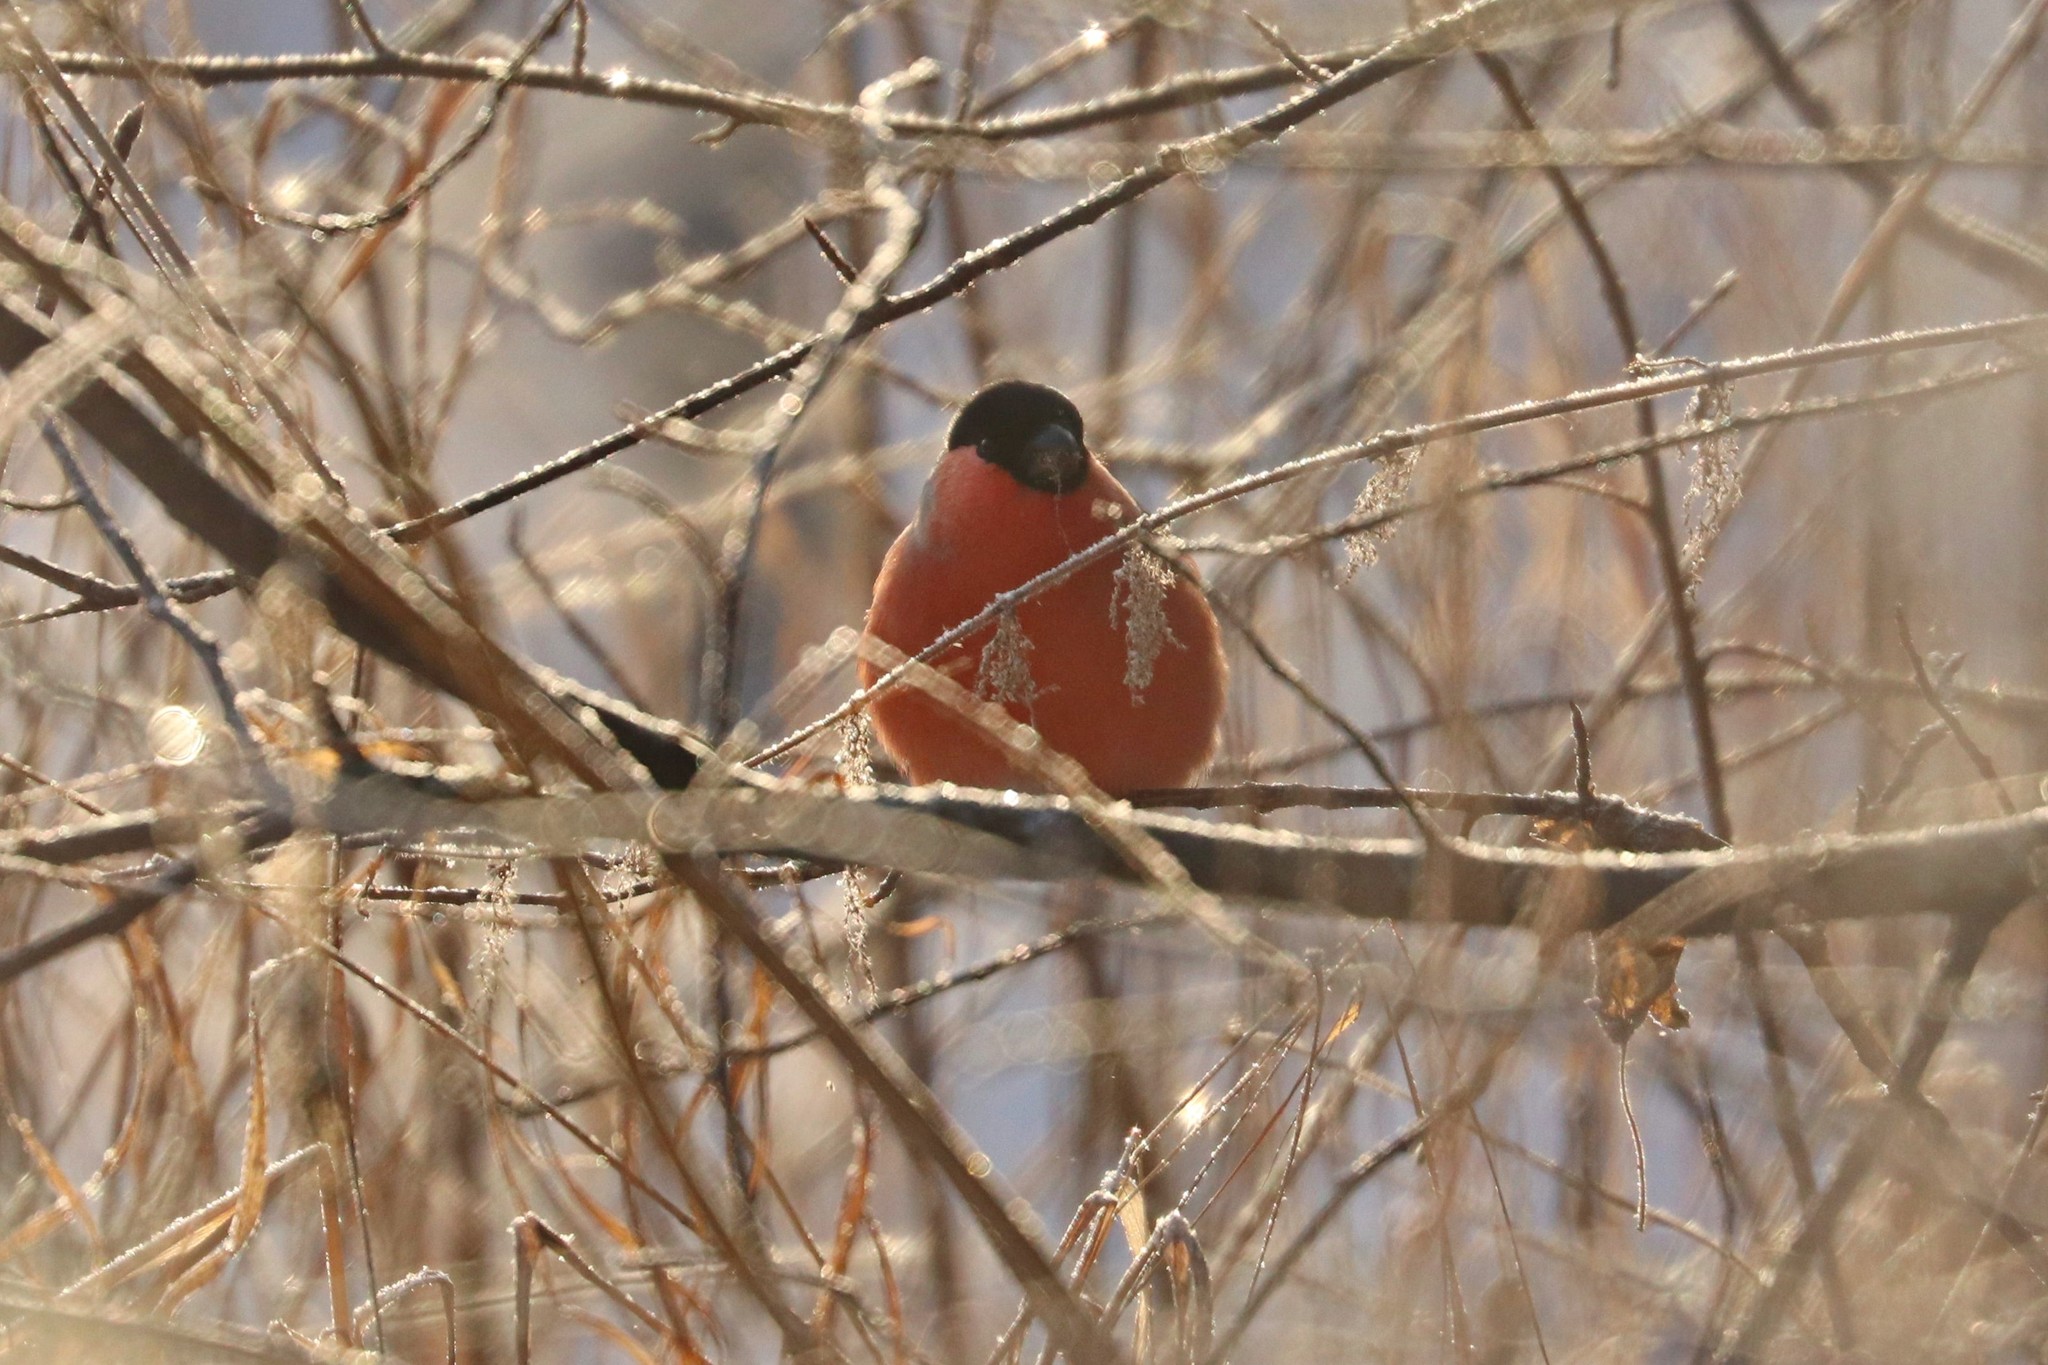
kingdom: Animalia
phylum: Chordata
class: Aves
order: Passeriformes
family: Fringillidae
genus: Pyrrhula
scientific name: Pyrrhula pyrrhula
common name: Eurasian bullfinch
